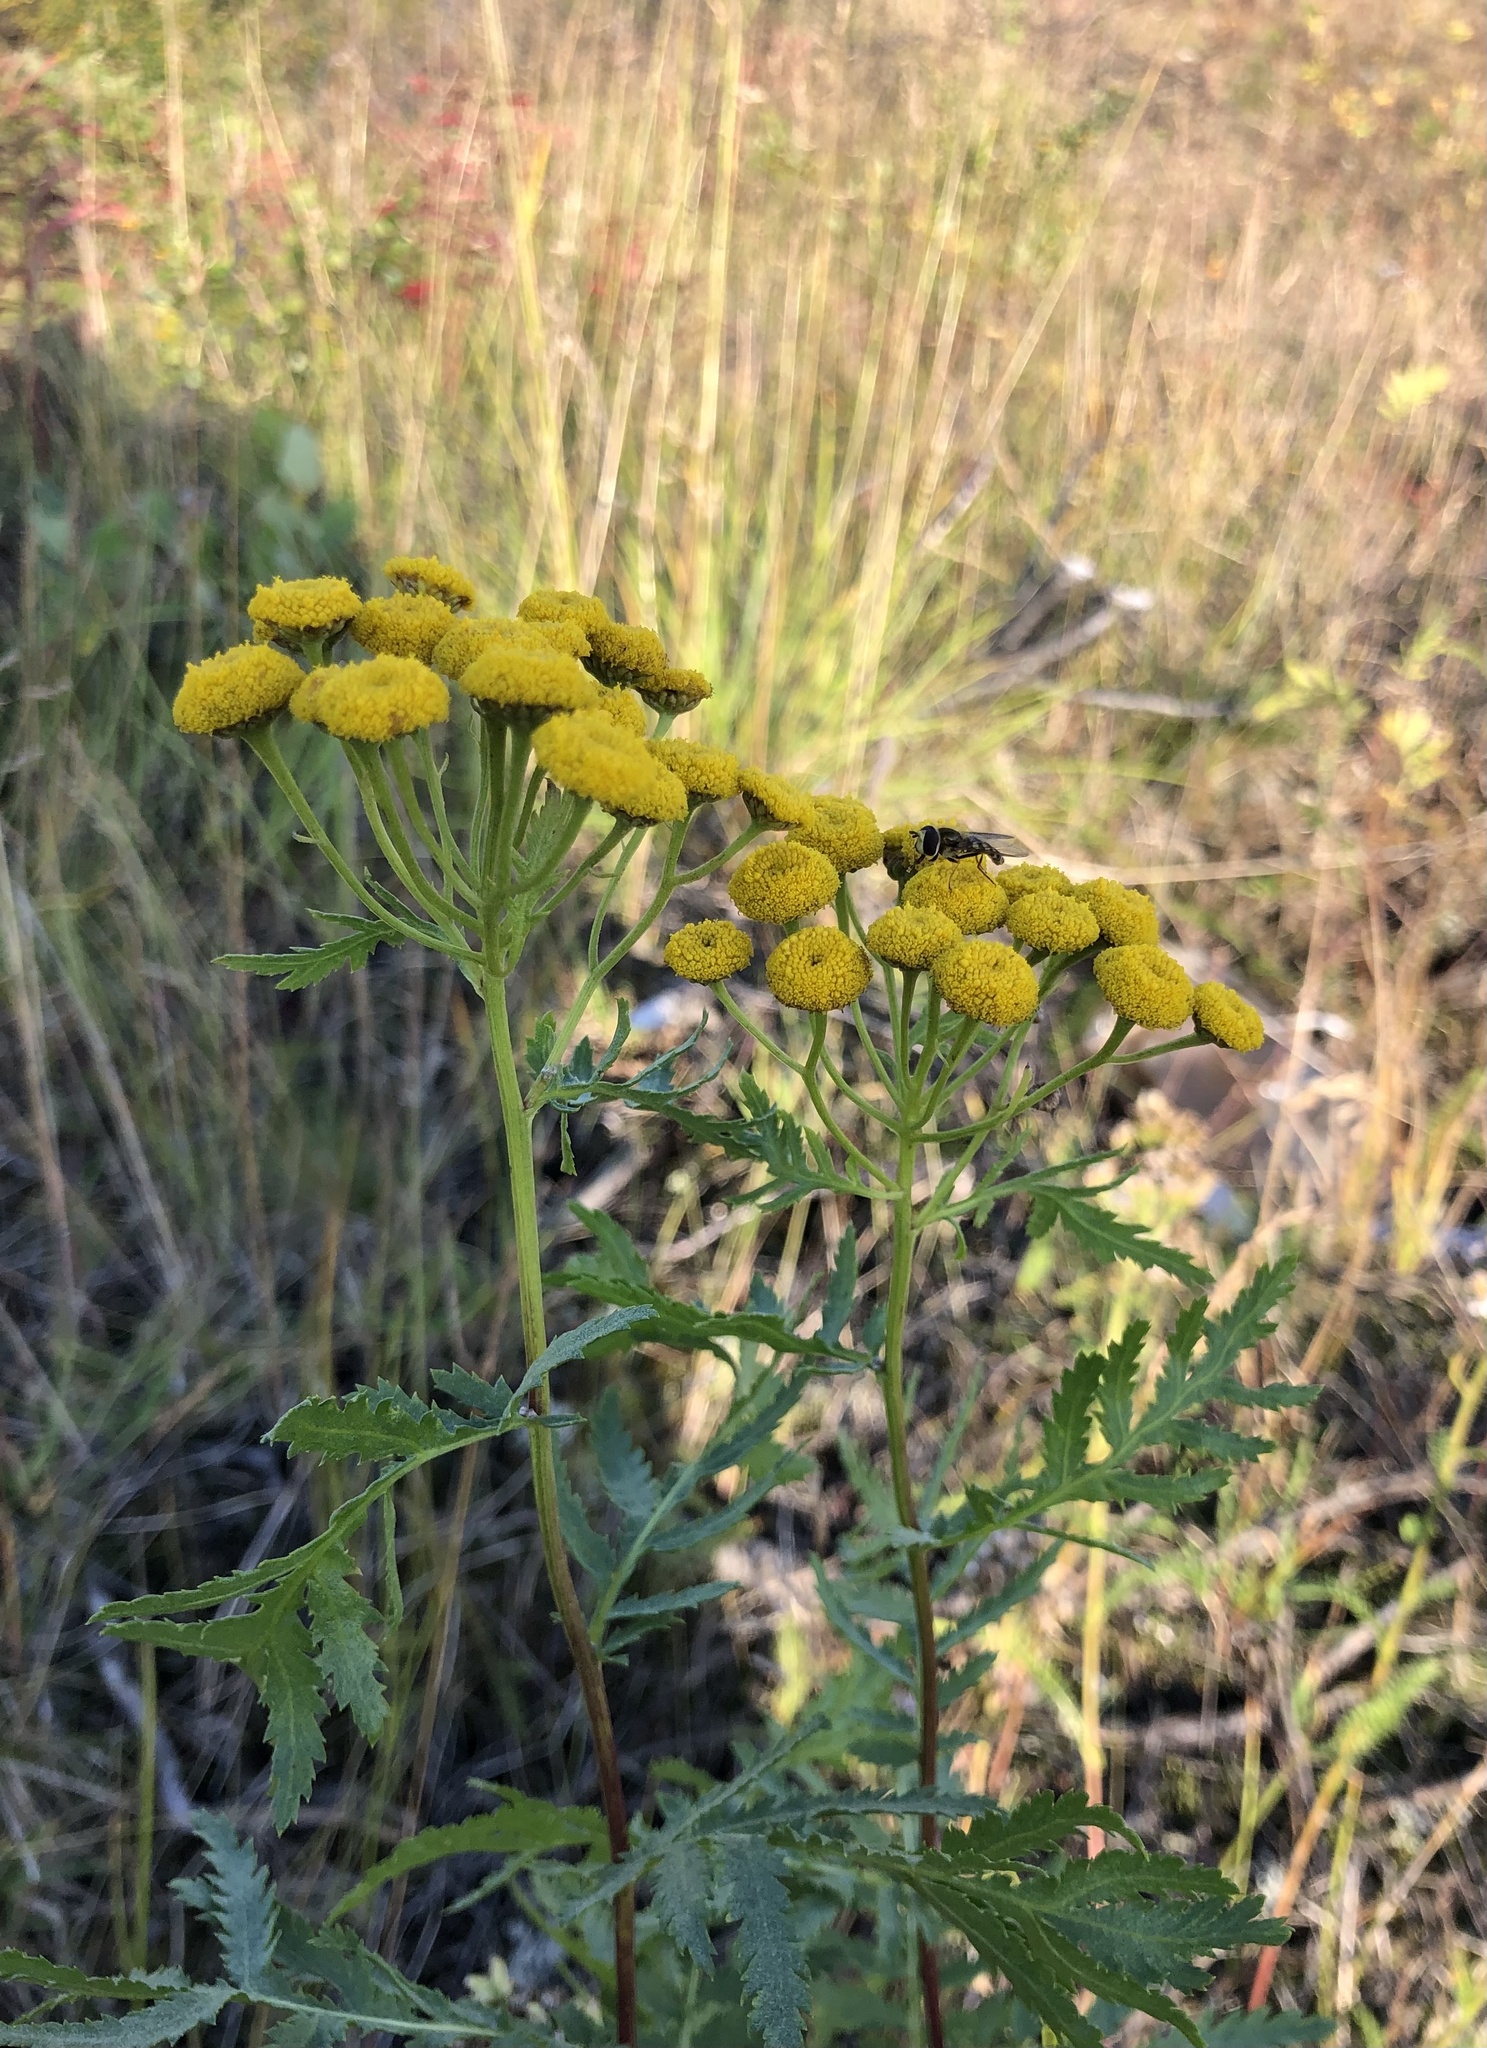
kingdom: Plantae
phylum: Tracheophyta
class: Magnoliopsida
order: Asterales
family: Asteraceae
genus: Tanacetum
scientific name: Tanacetum vulgare
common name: Common tansy
